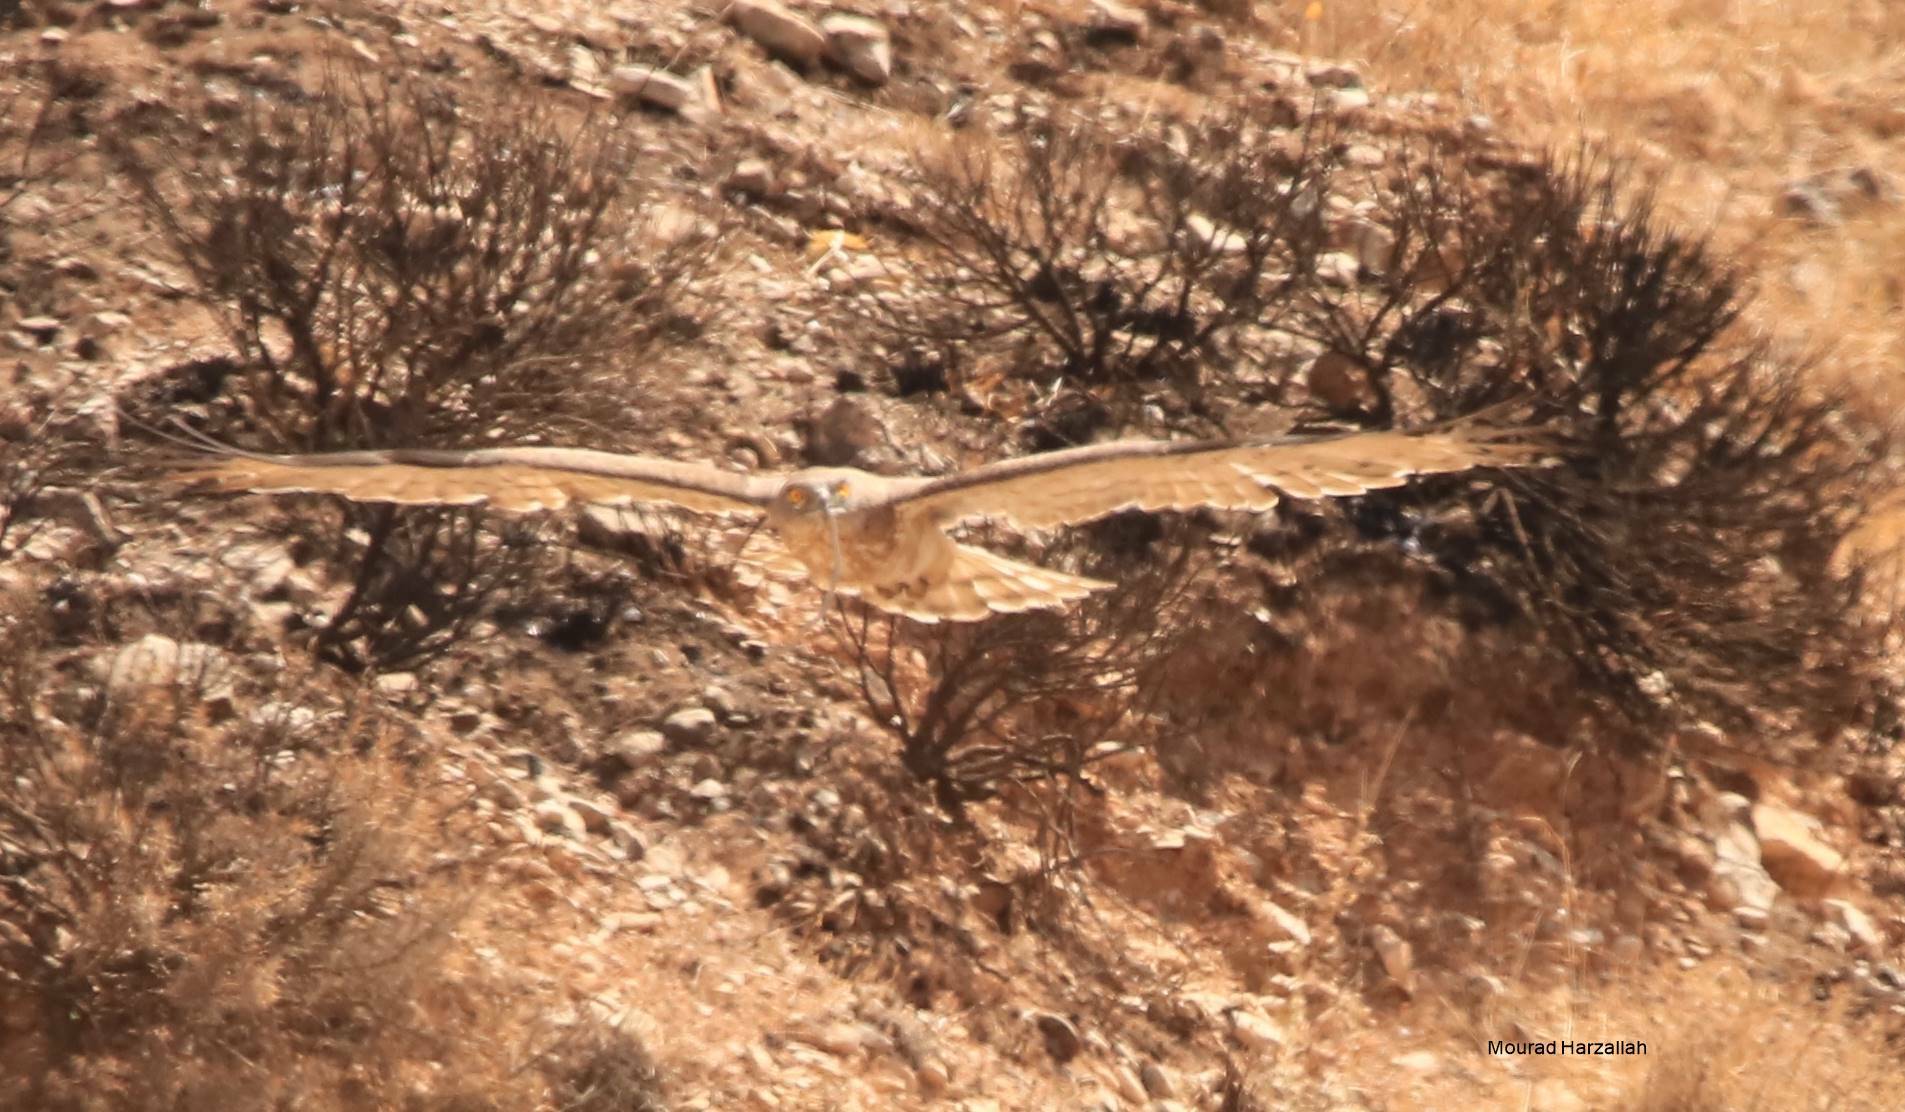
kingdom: Animalia
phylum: Chordata
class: Aves
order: Accipitriformes
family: Accipitridae
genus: Circaetus
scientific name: Circaetus gallicus
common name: Short-toed snake eagle
